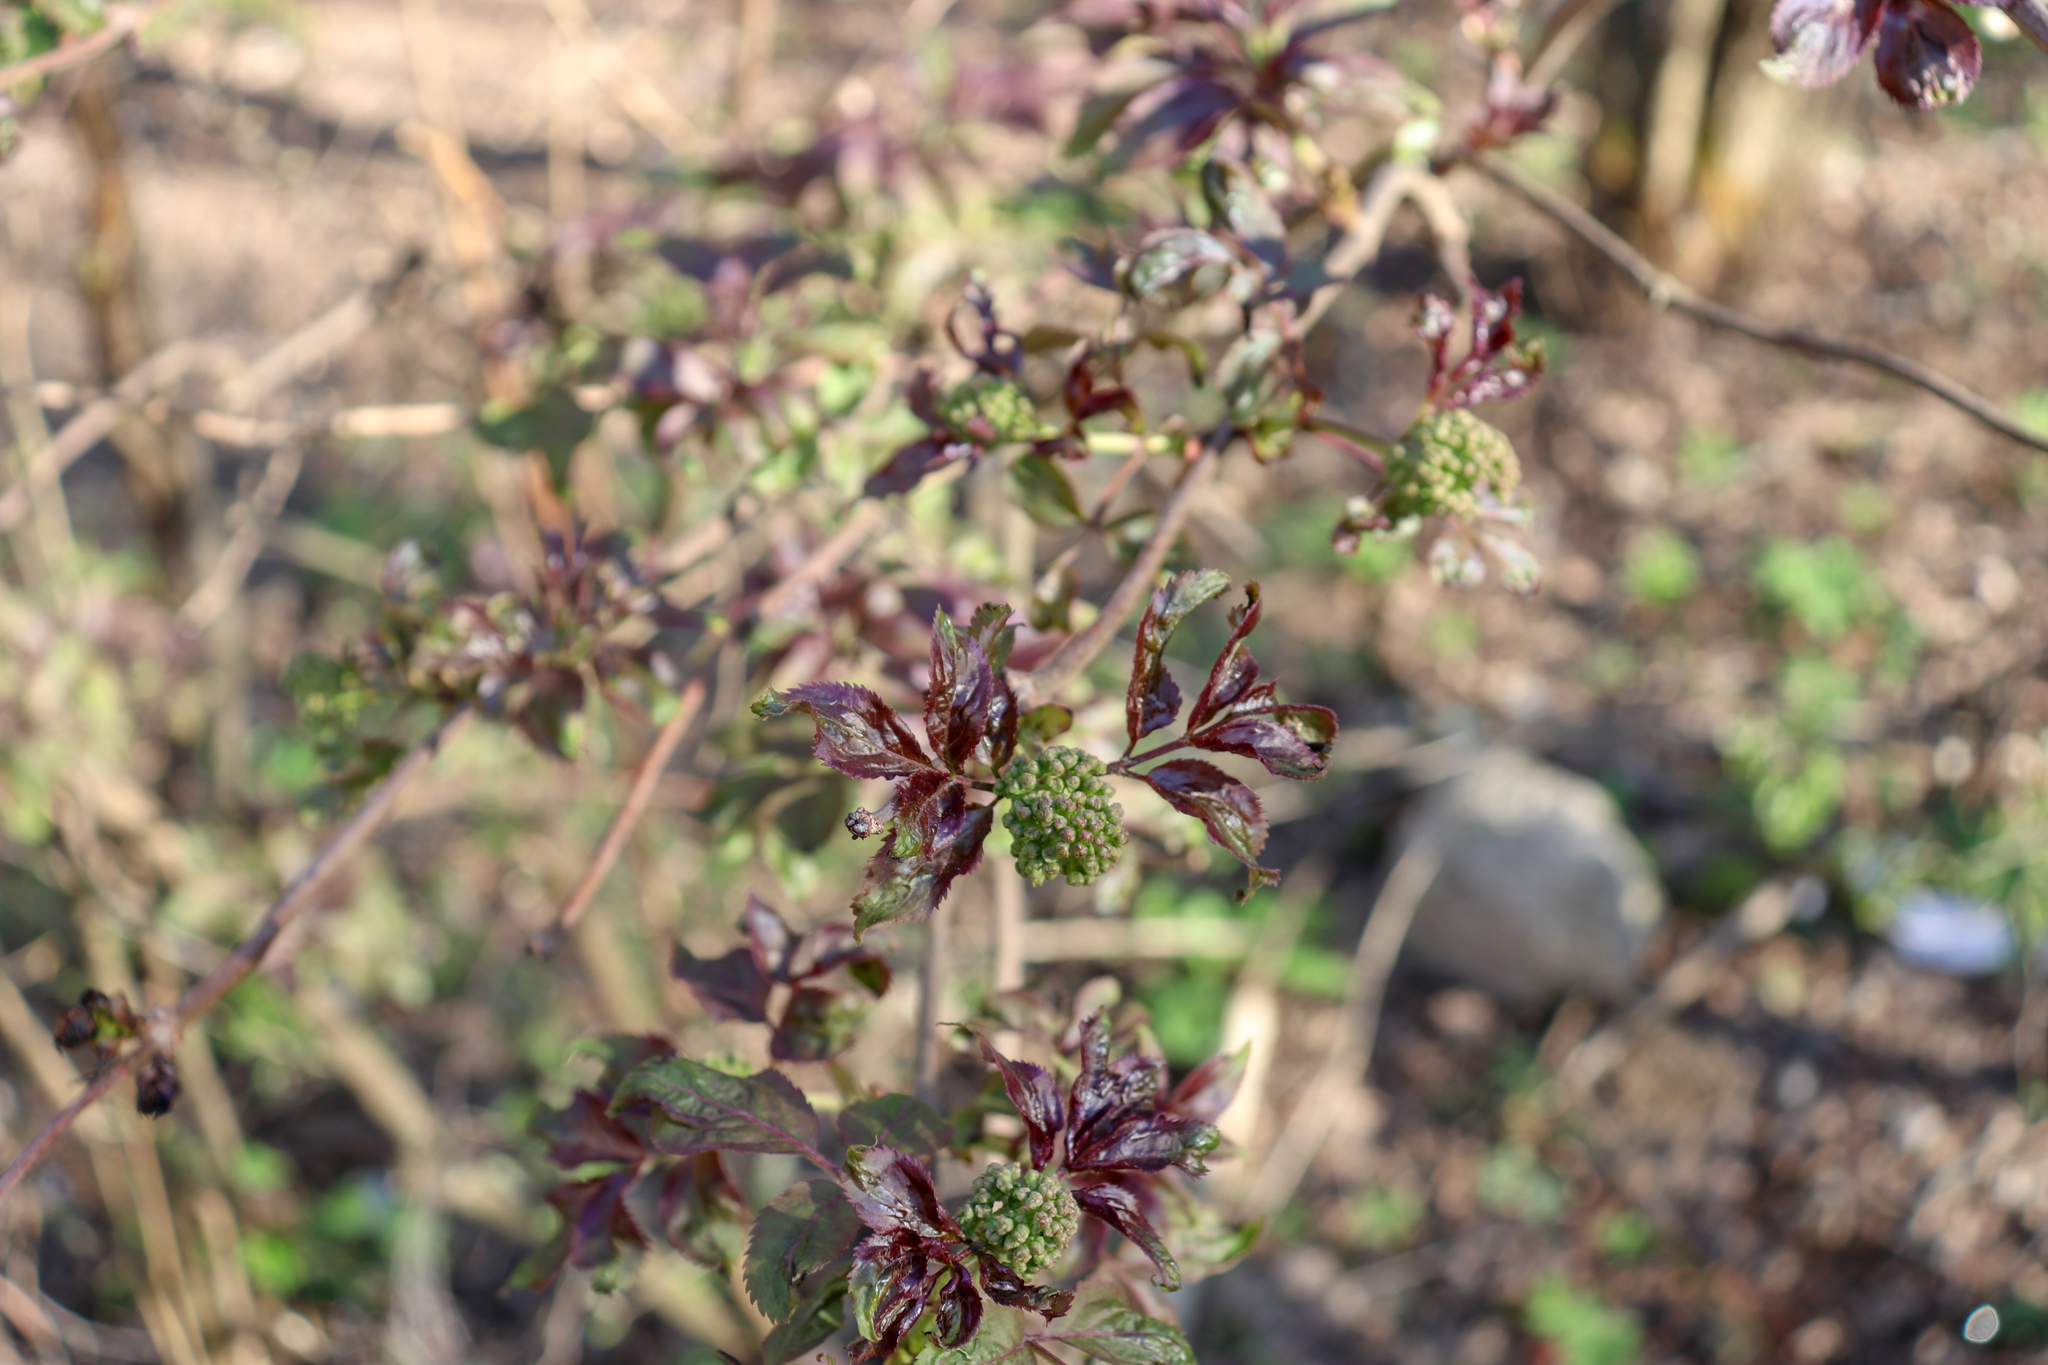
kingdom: Plantae
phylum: Tracheophyta
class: Magnoliopsida
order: Dipsacales
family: Viburnaceae
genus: Sambucus
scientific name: Sambucus racemosa
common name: Red-berried elder
